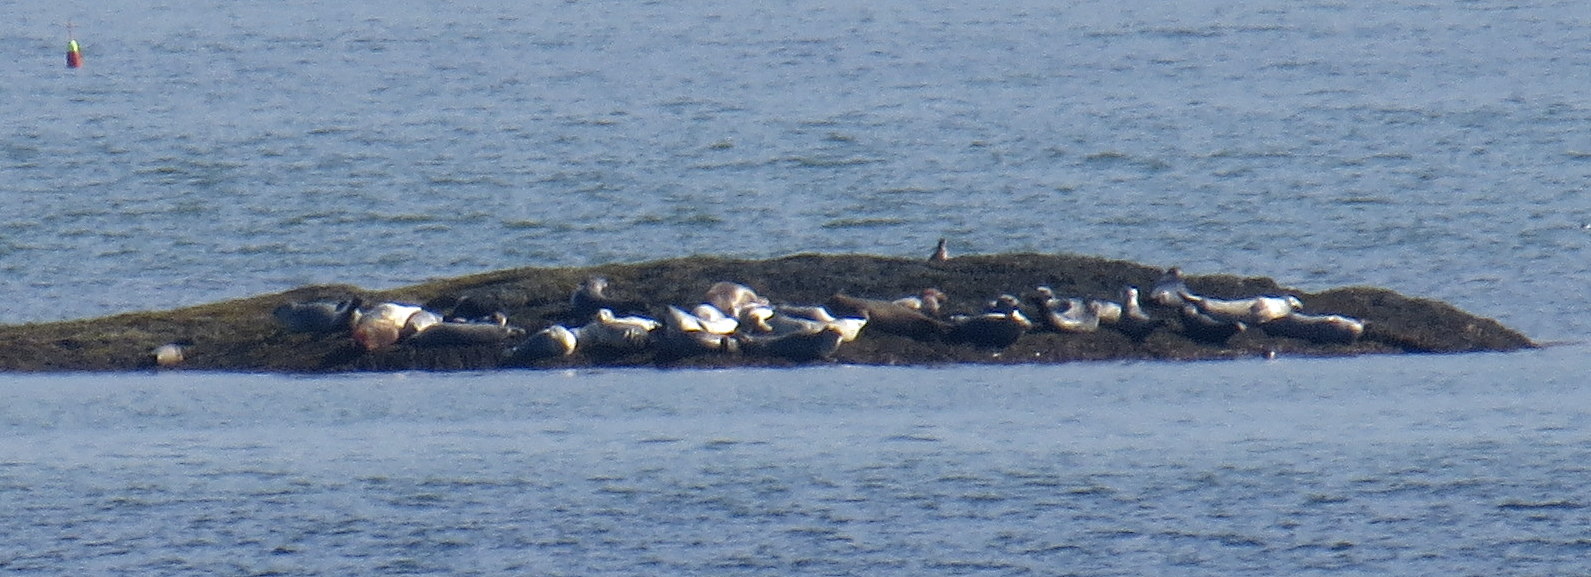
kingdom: Animalia
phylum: Chordata
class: Mammalia
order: Carnivora
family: Phocidae
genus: Phoca
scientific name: Phoca vitulina
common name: Harbor seal
